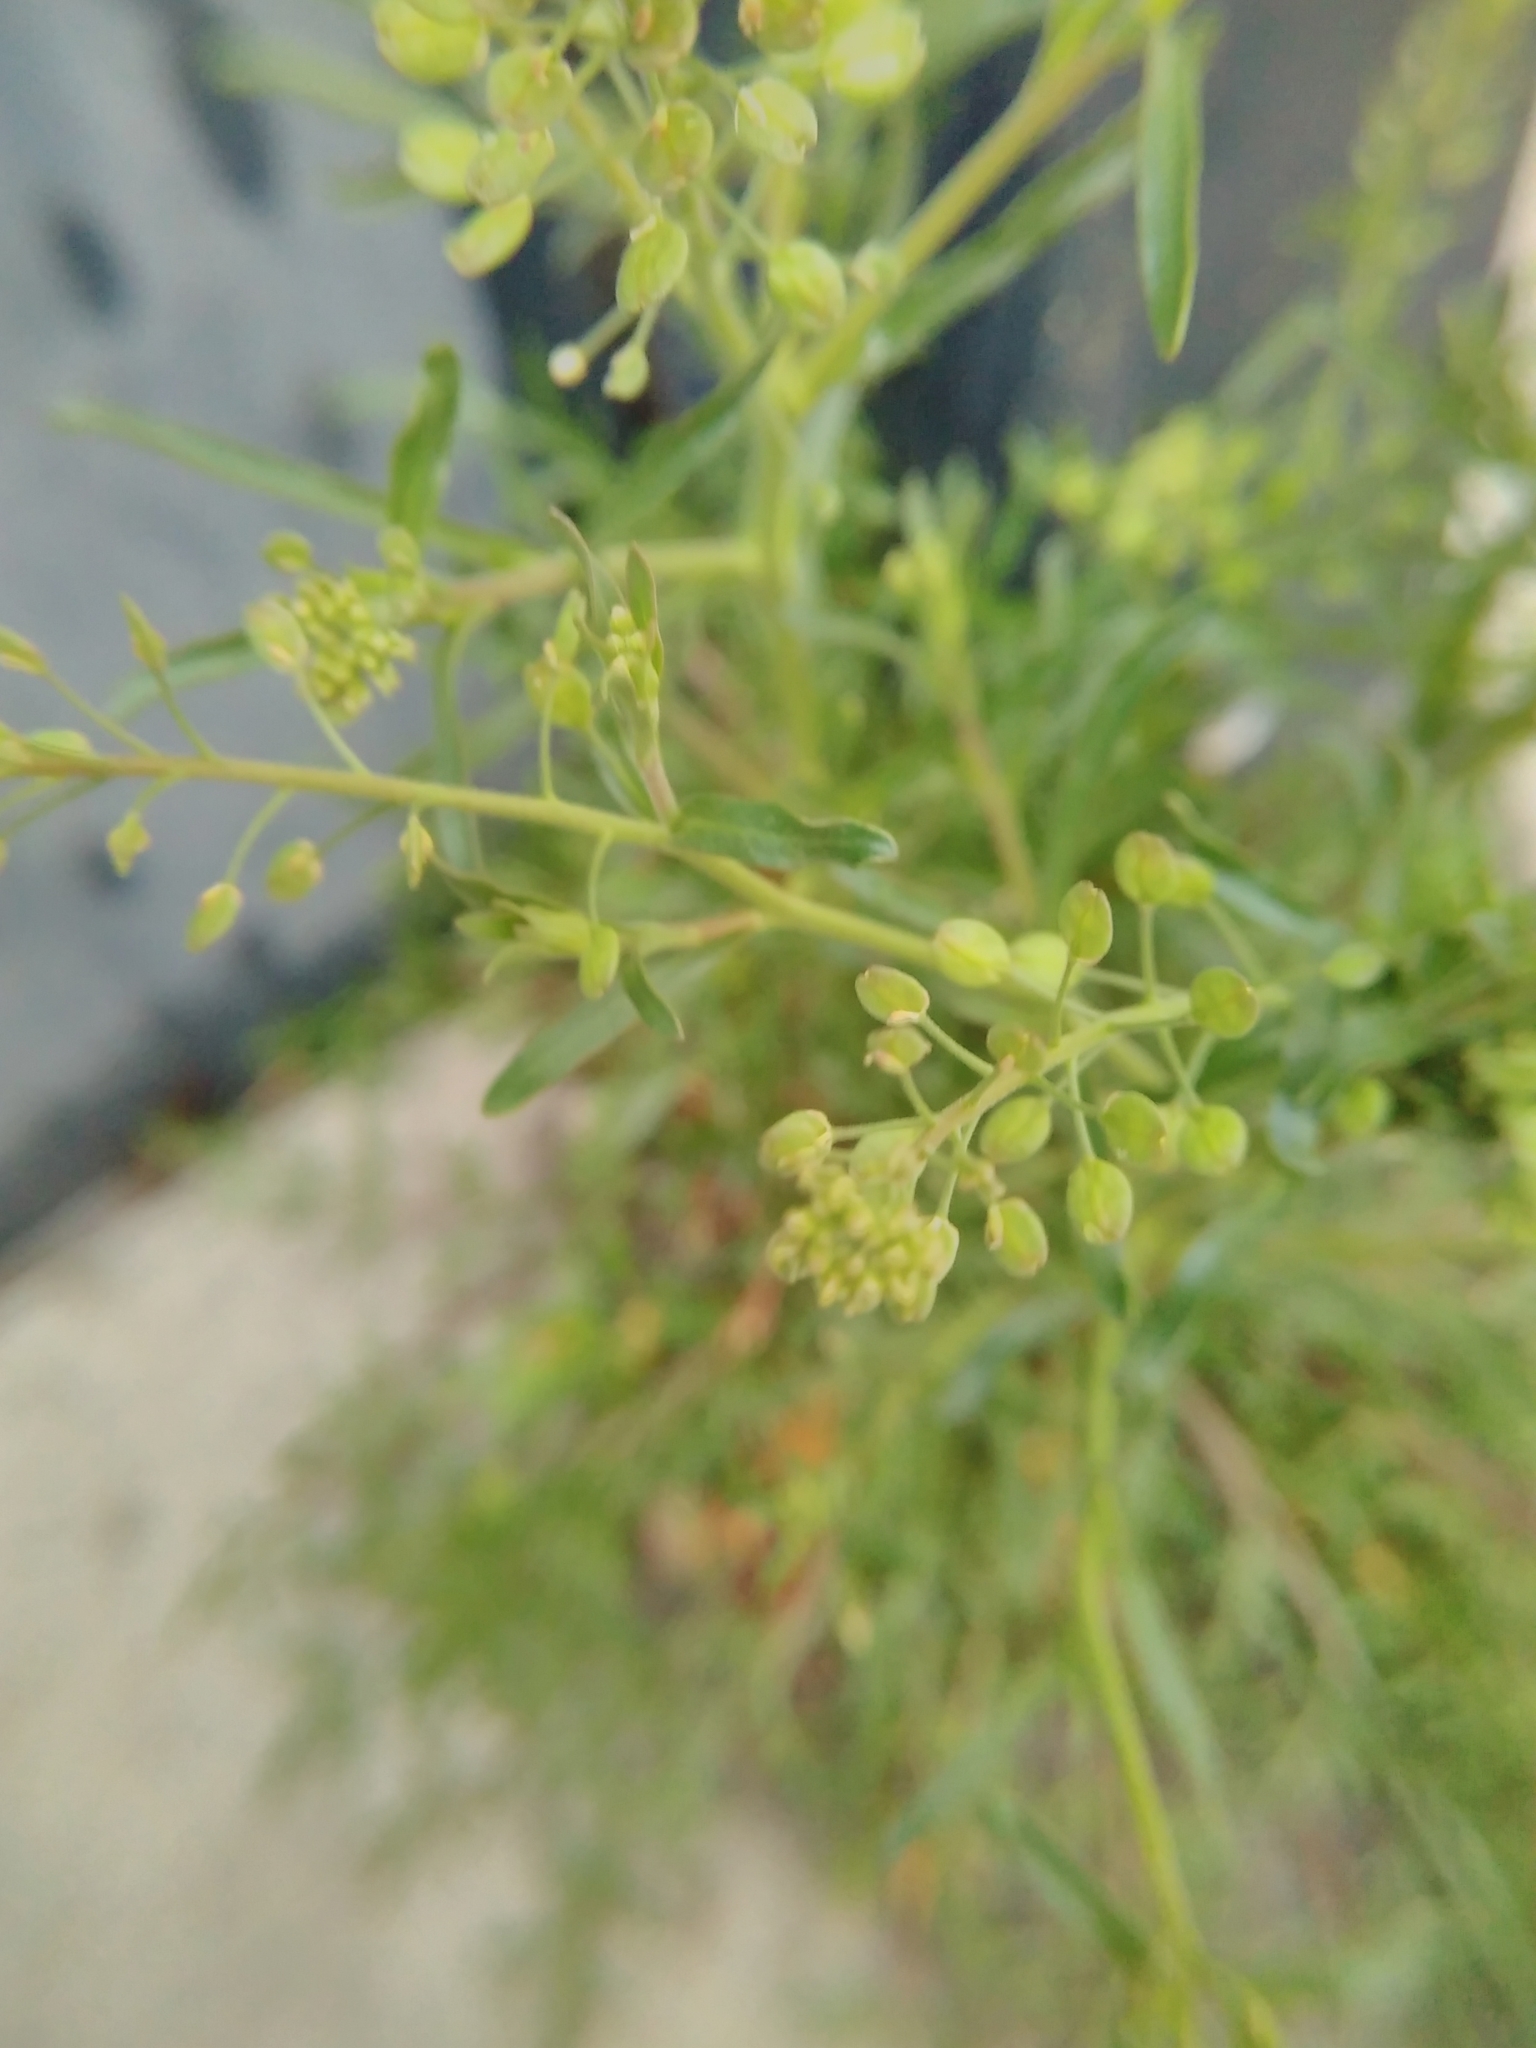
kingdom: Plantae
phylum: Tracheophyta
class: Magnoliopsida
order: Brassicales
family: Brassicaceae
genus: Lepidium
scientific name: Lepidium ruderale
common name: Narrow-leaved pepperwort
